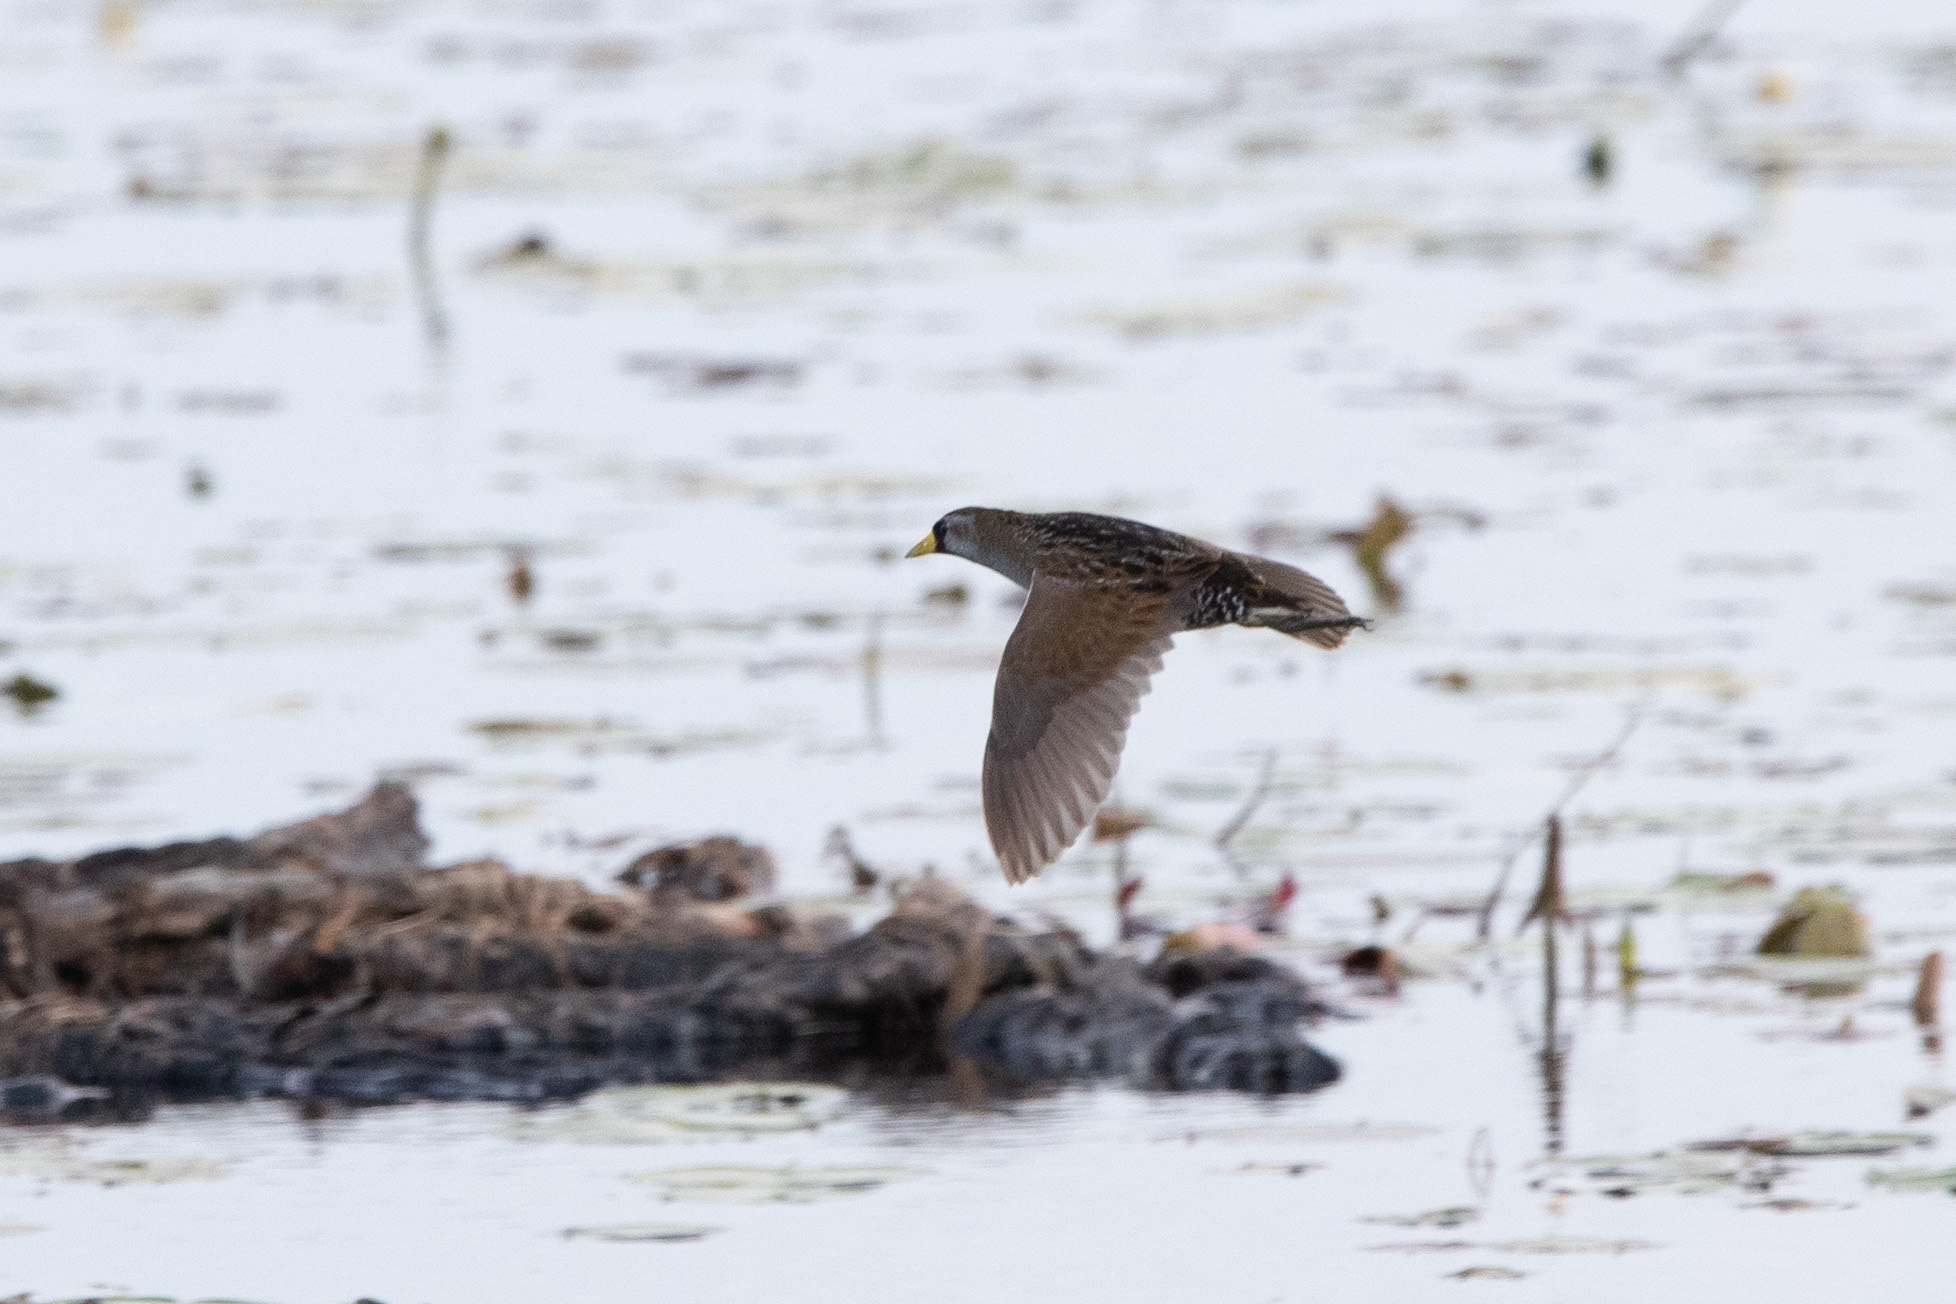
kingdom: Animalia
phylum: Chordata
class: Aves
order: Gruiformes
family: Rallidae
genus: Porzana
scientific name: Porzana carolina
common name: Sora
